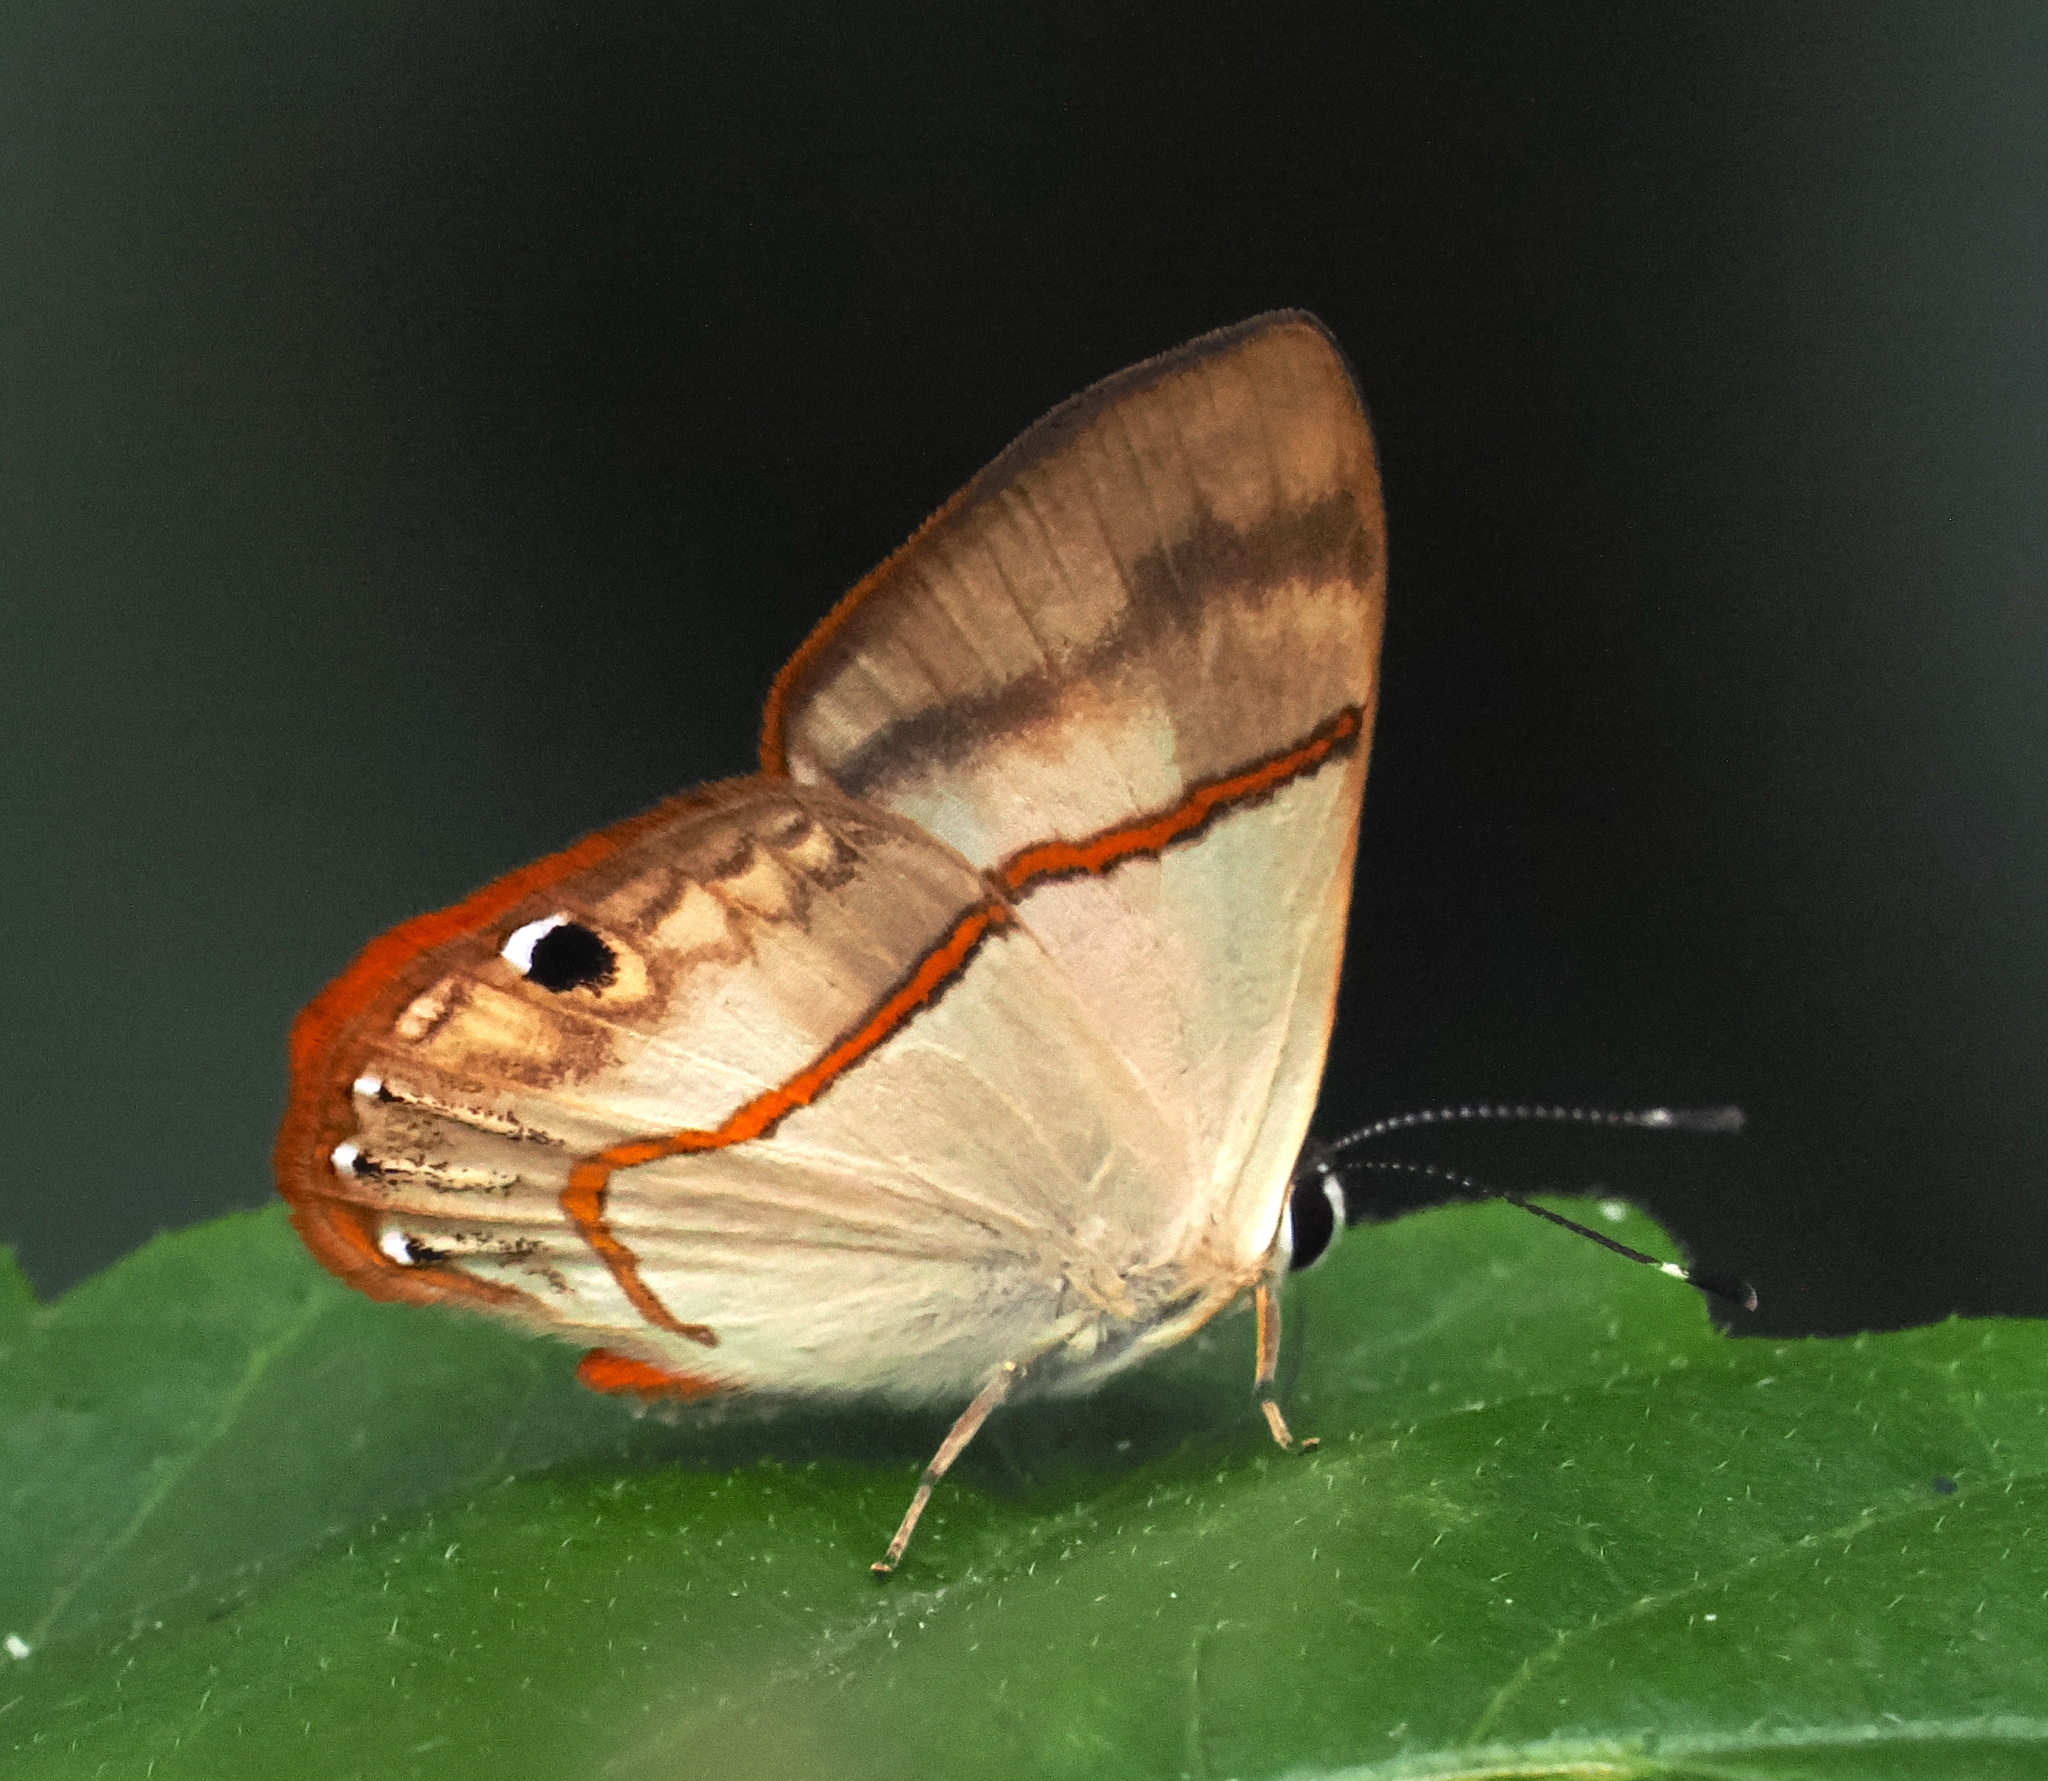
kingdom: Animalia
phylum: Arthropoda
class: Insecta
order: Lepidoptera
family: Lycaenidae
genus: Euselasia
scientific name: Euselasia parca
